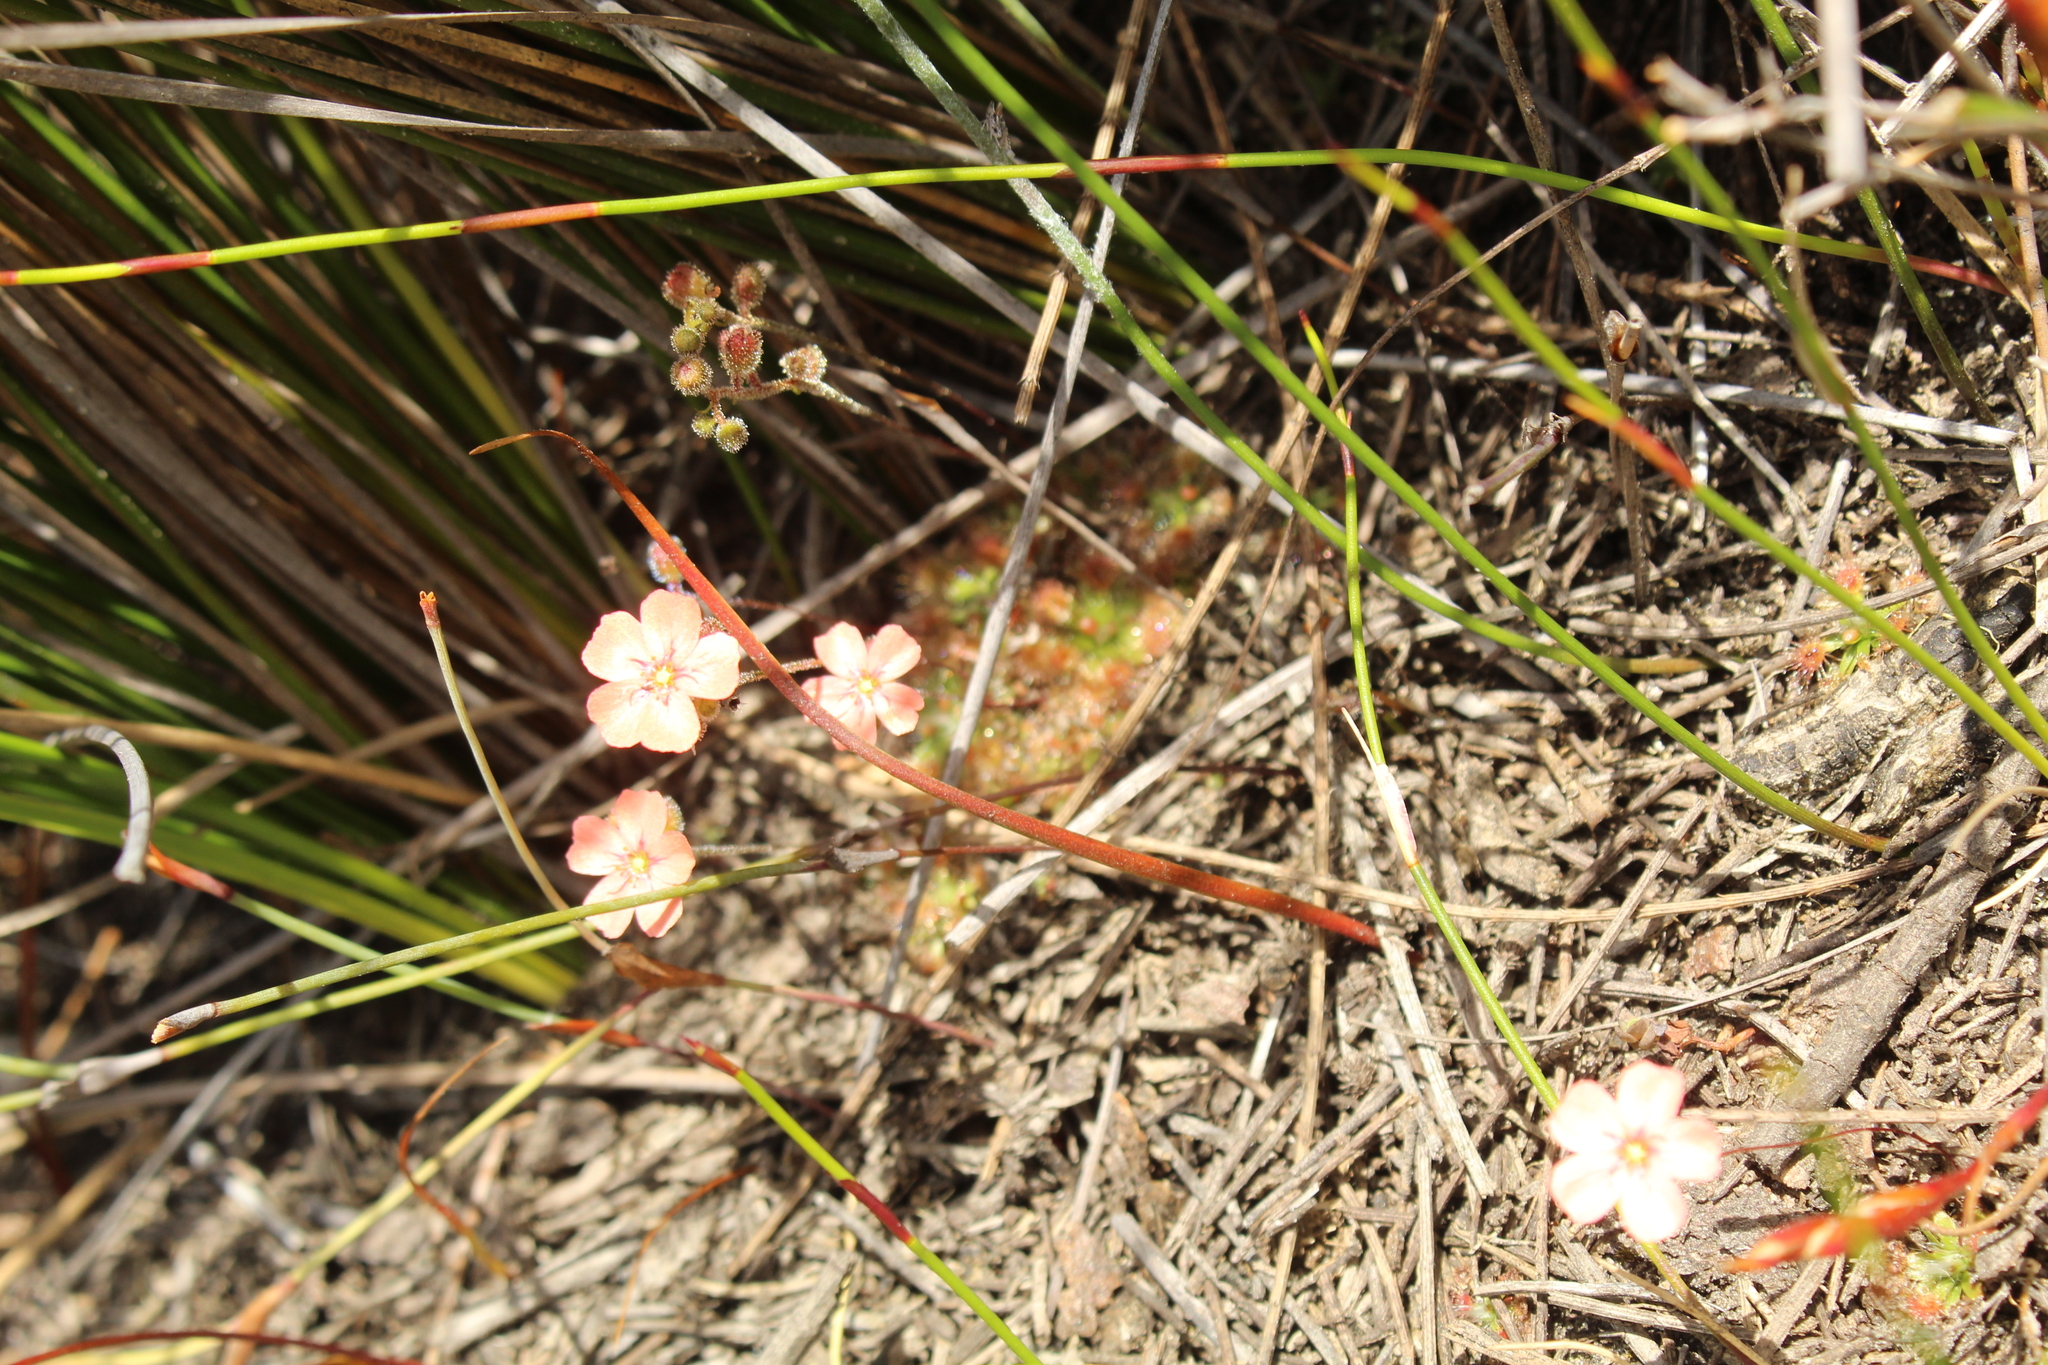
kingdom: Plantae
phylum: Tracheophyta
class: Magnoliopsida
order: Caryophyllales
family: Droseraceae
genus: Drosera
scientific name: Drosera pulchella
